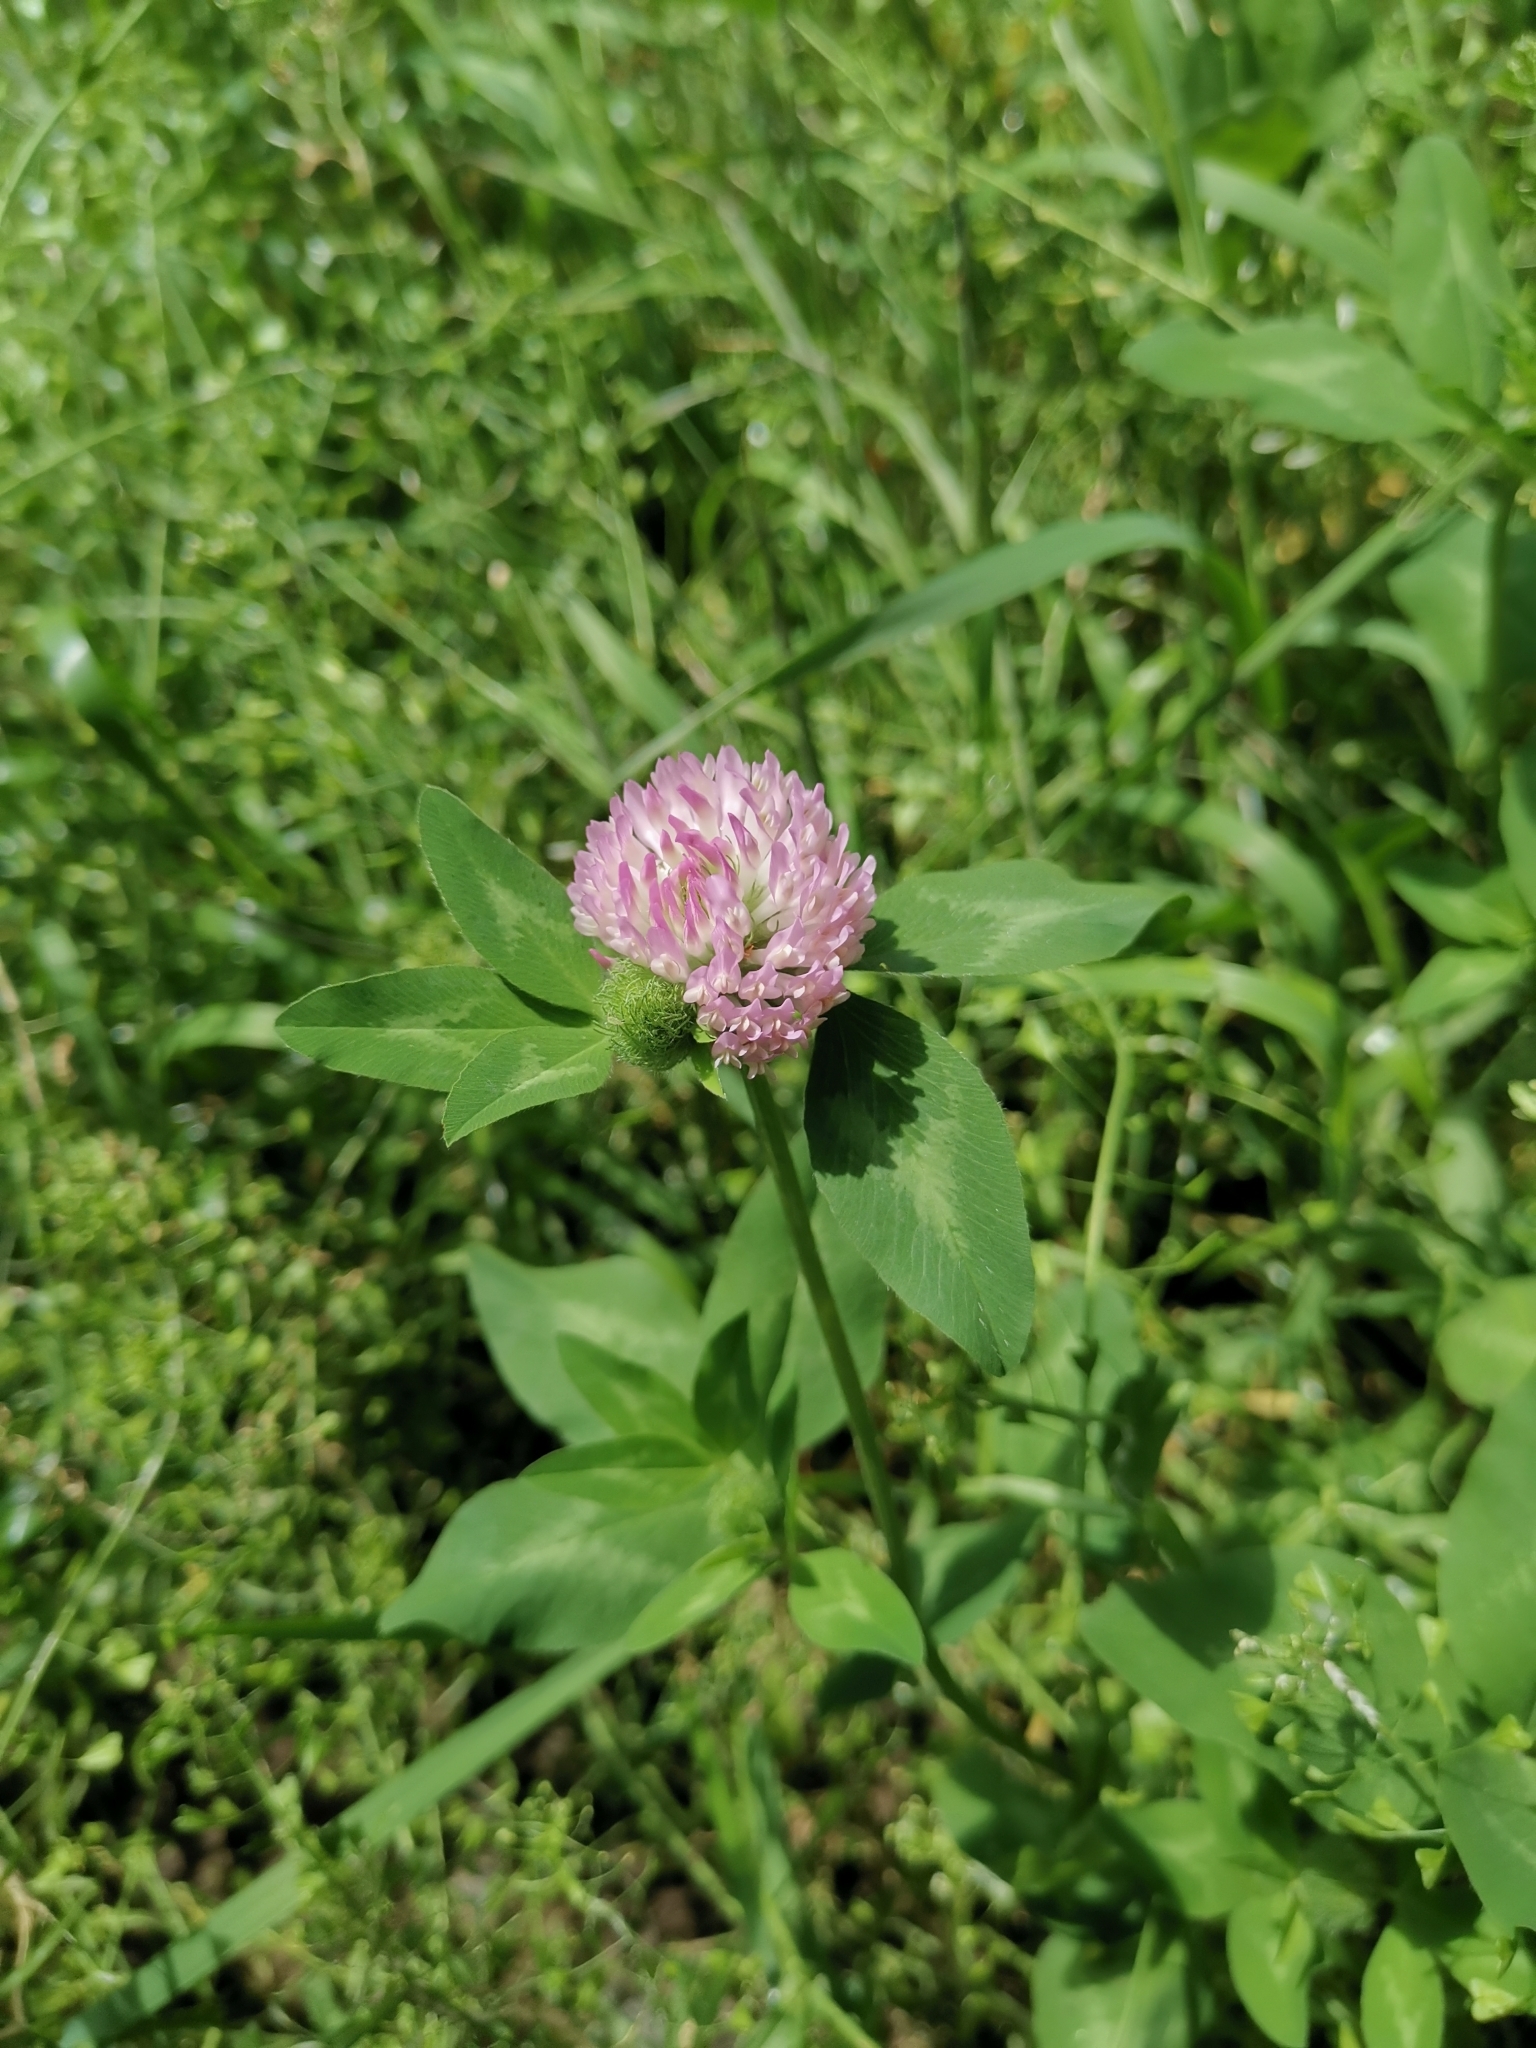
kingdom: Plantae
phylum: Tracheophyta
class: Magnoliopsida
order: Fabales
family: Fabaceae
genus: Trifolium
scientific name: Trifolium pratense
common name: Red clover
